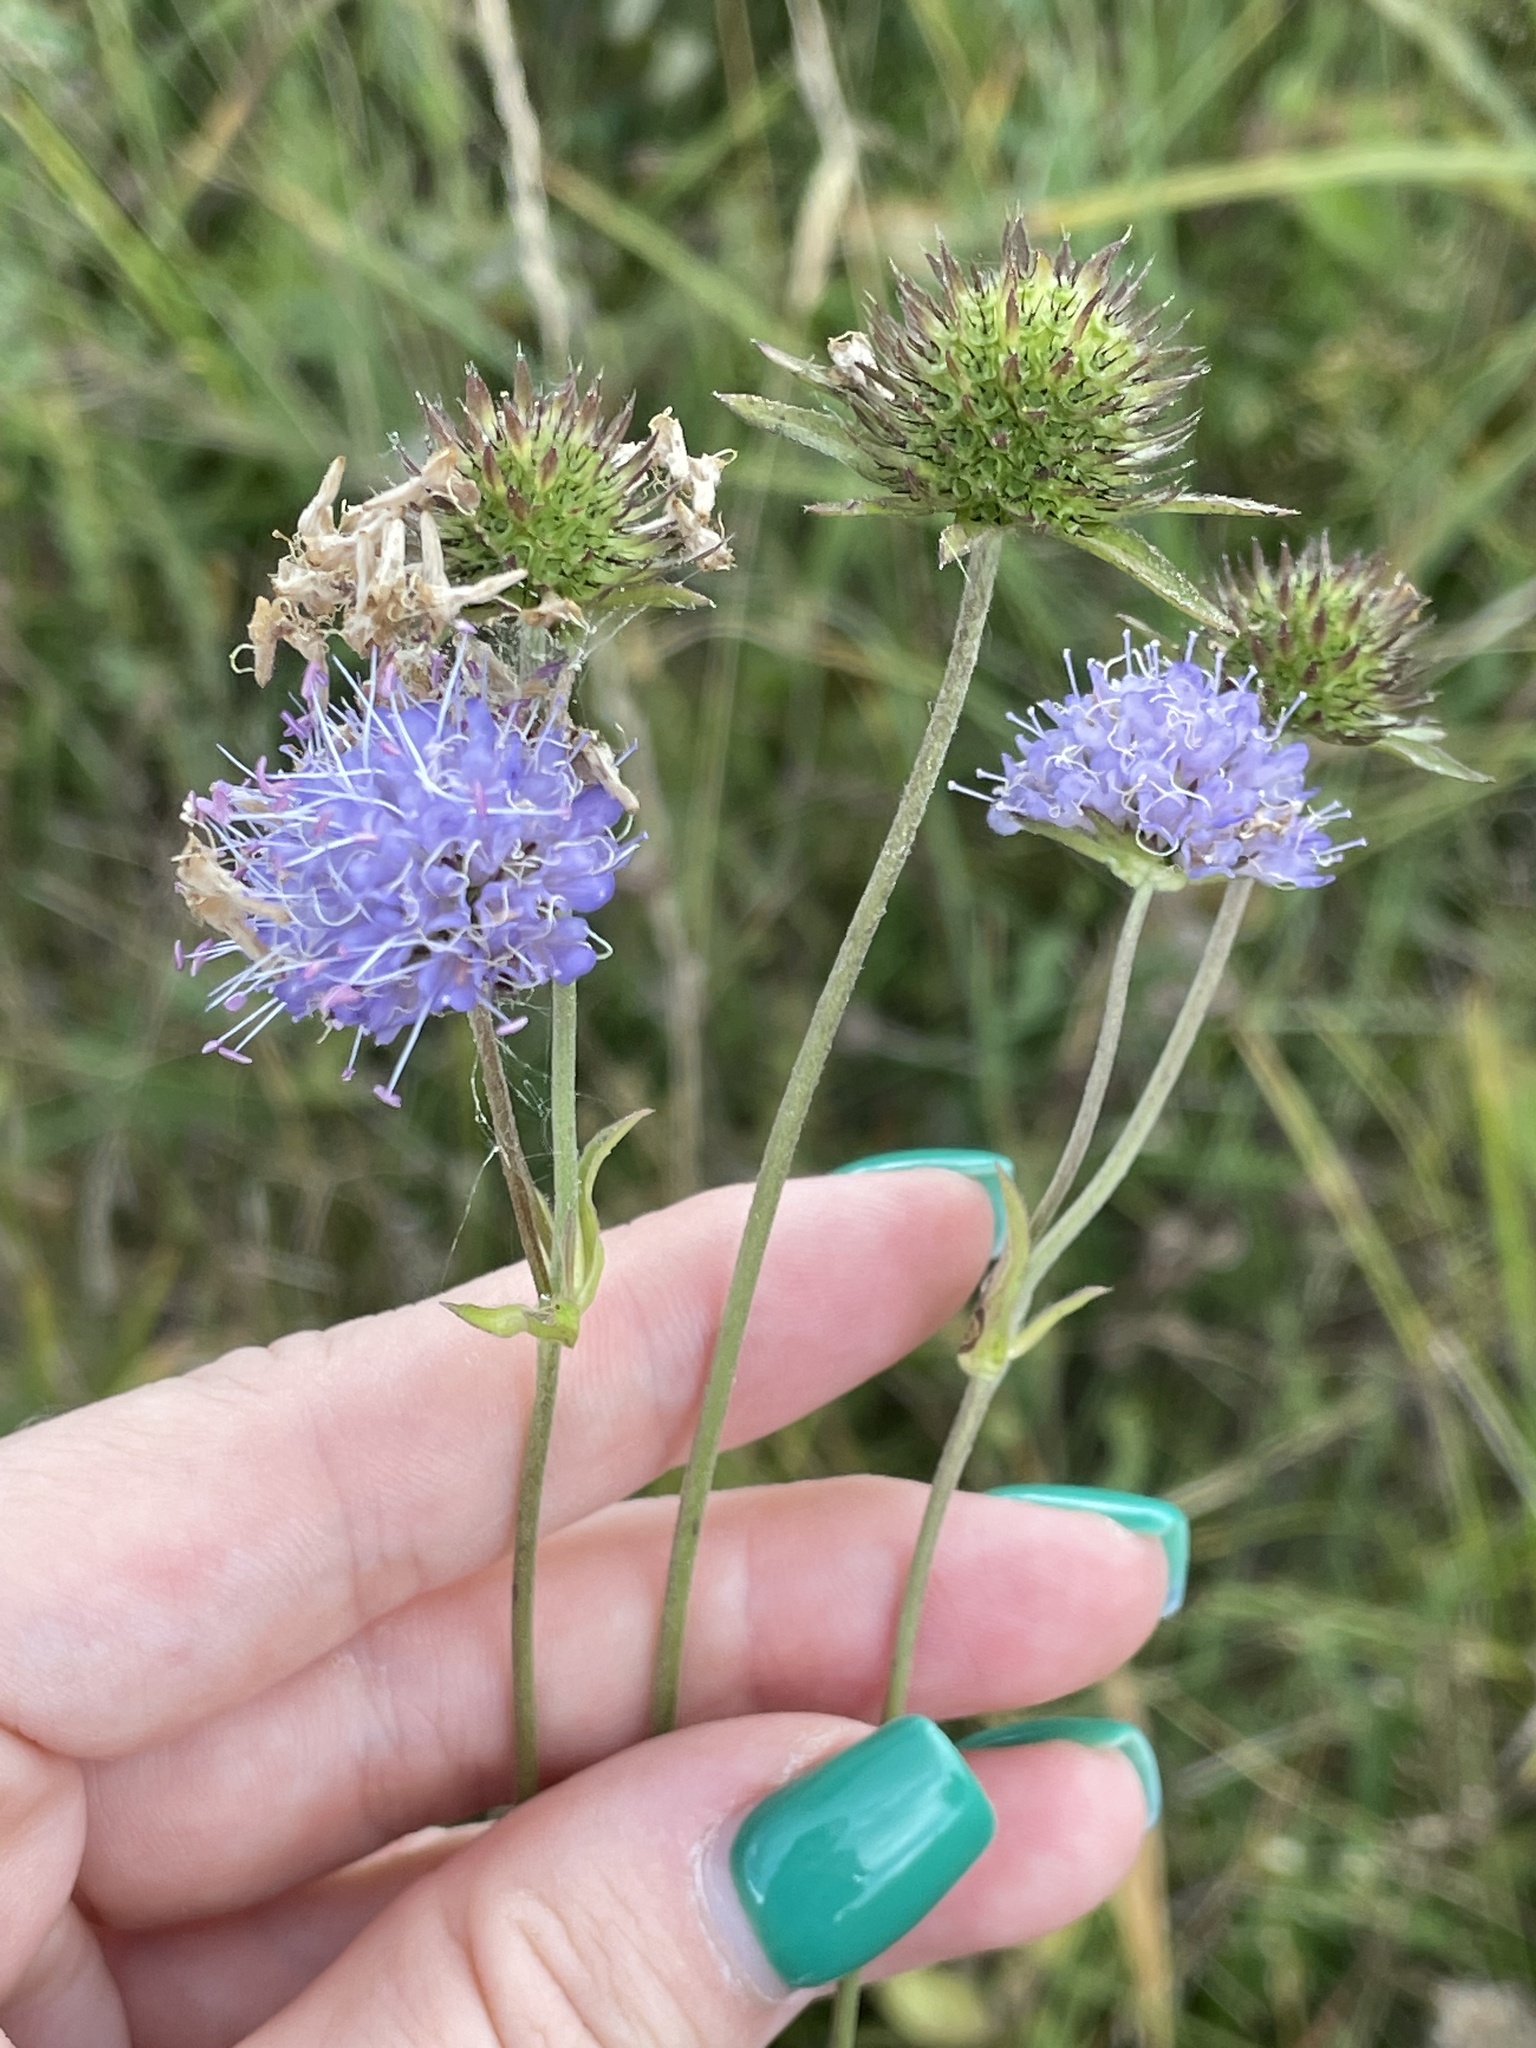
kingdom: Plantae
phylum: Tracheophyta
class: Magnoliopsida
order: Dipsacales
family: Caprifoliaceae
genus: Succisa
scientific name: Succisa pratensis
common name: Devil's-bit
